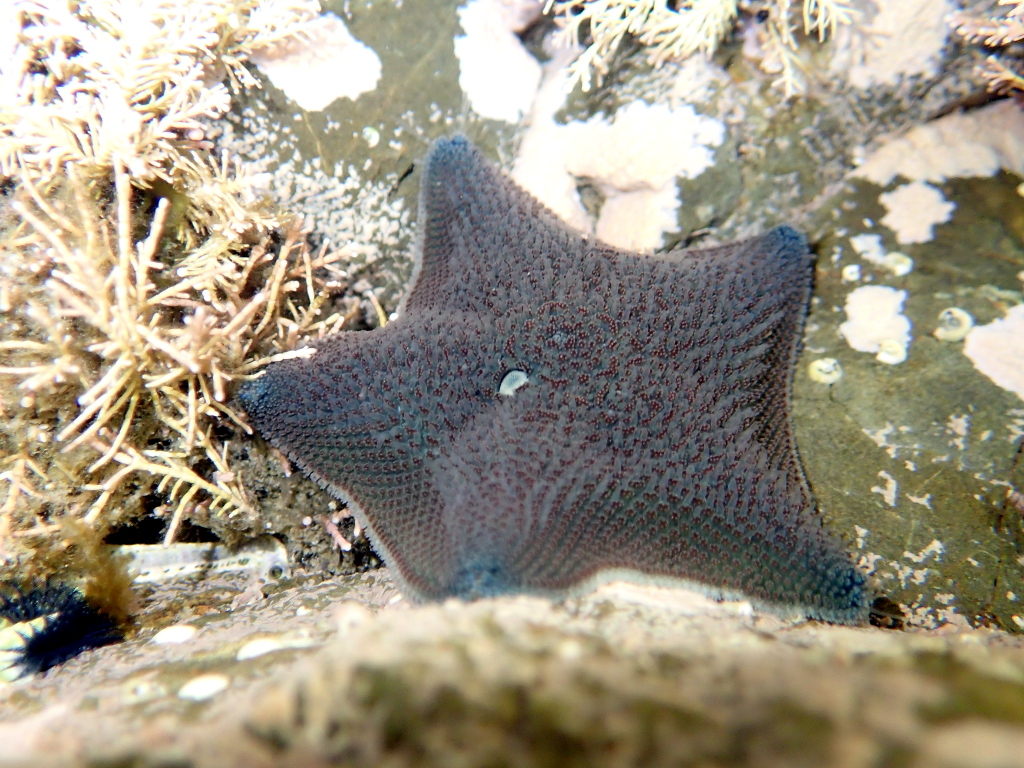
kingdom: Animalia
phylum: Echinodermata
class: Asteroidea
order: Valvatida
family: Asterinidae
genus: Patiriella
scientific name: Patiriella regularis
